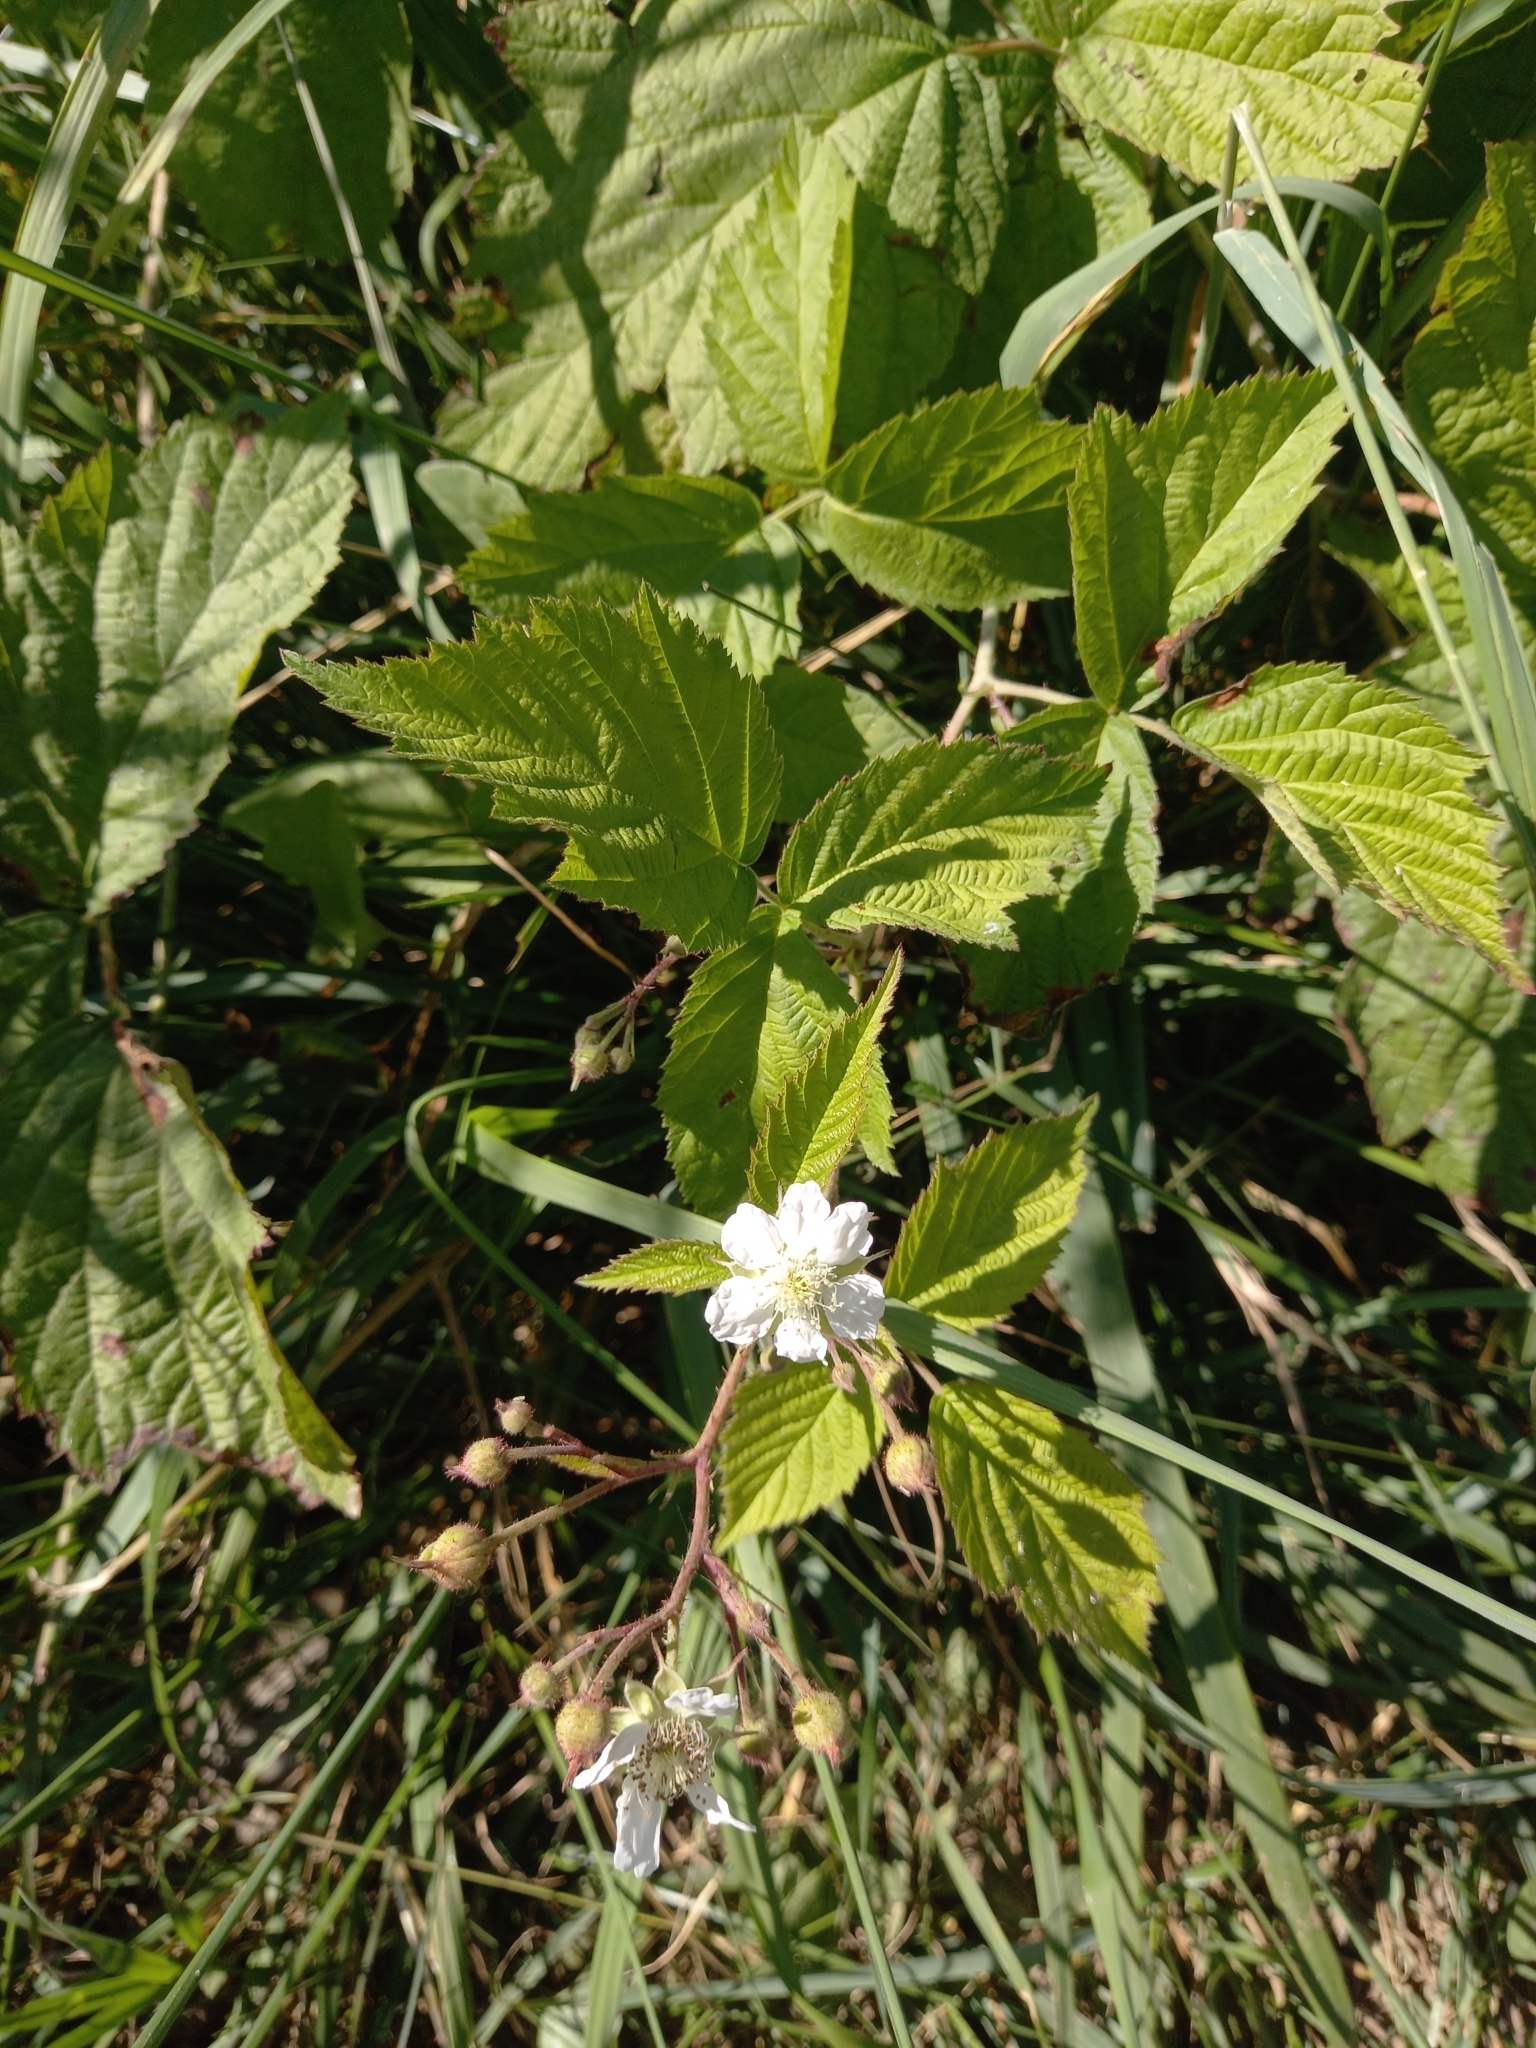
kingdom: Plantae
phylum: Tracheophyta
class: Magnoliopsida
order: Rosales
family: Rosaceae
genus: Rubus
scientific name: Rubus caesius
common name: Dewberry
